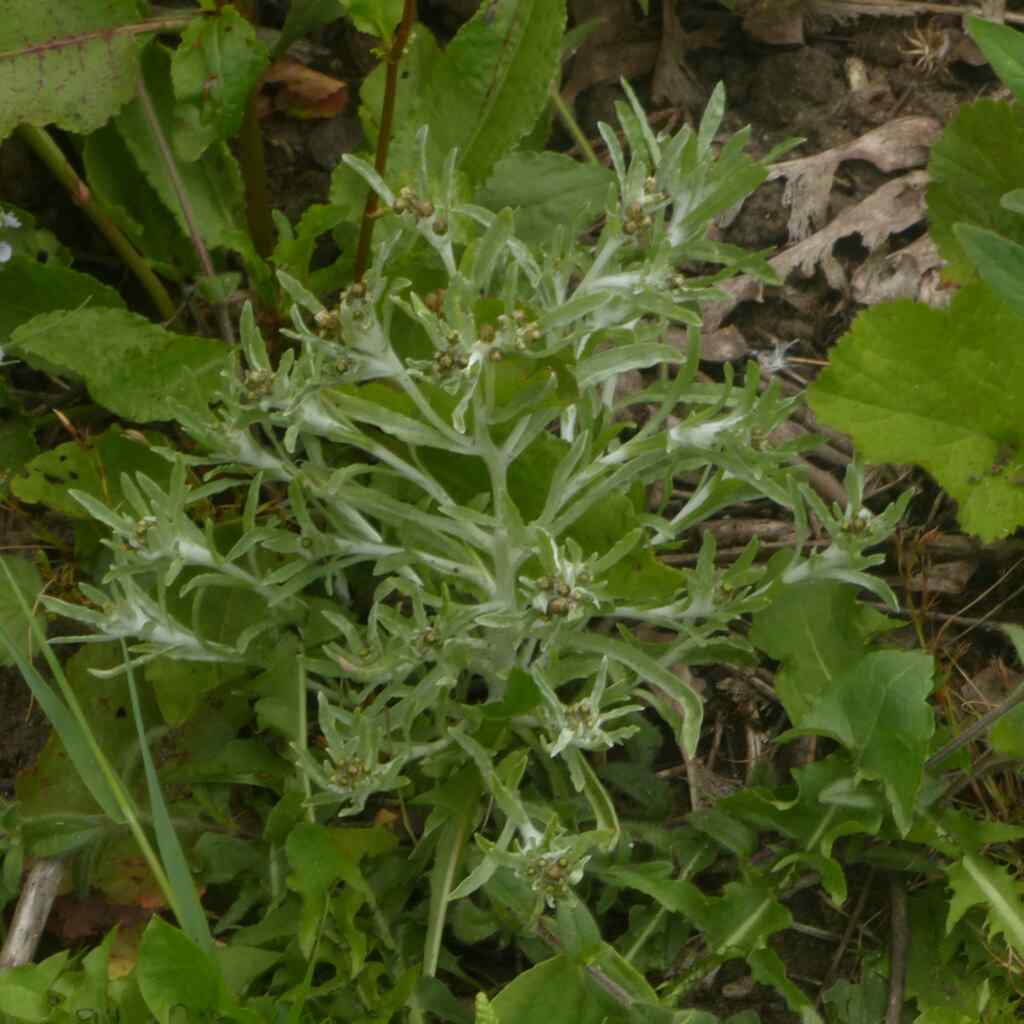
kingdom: Plantae
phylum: Tracheophyta
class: Magnoliopsida
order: Asterales
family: Asteraceae
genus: Gnaphalium
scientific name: Gnaphalium uliginosum
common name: Marsh cudweed
